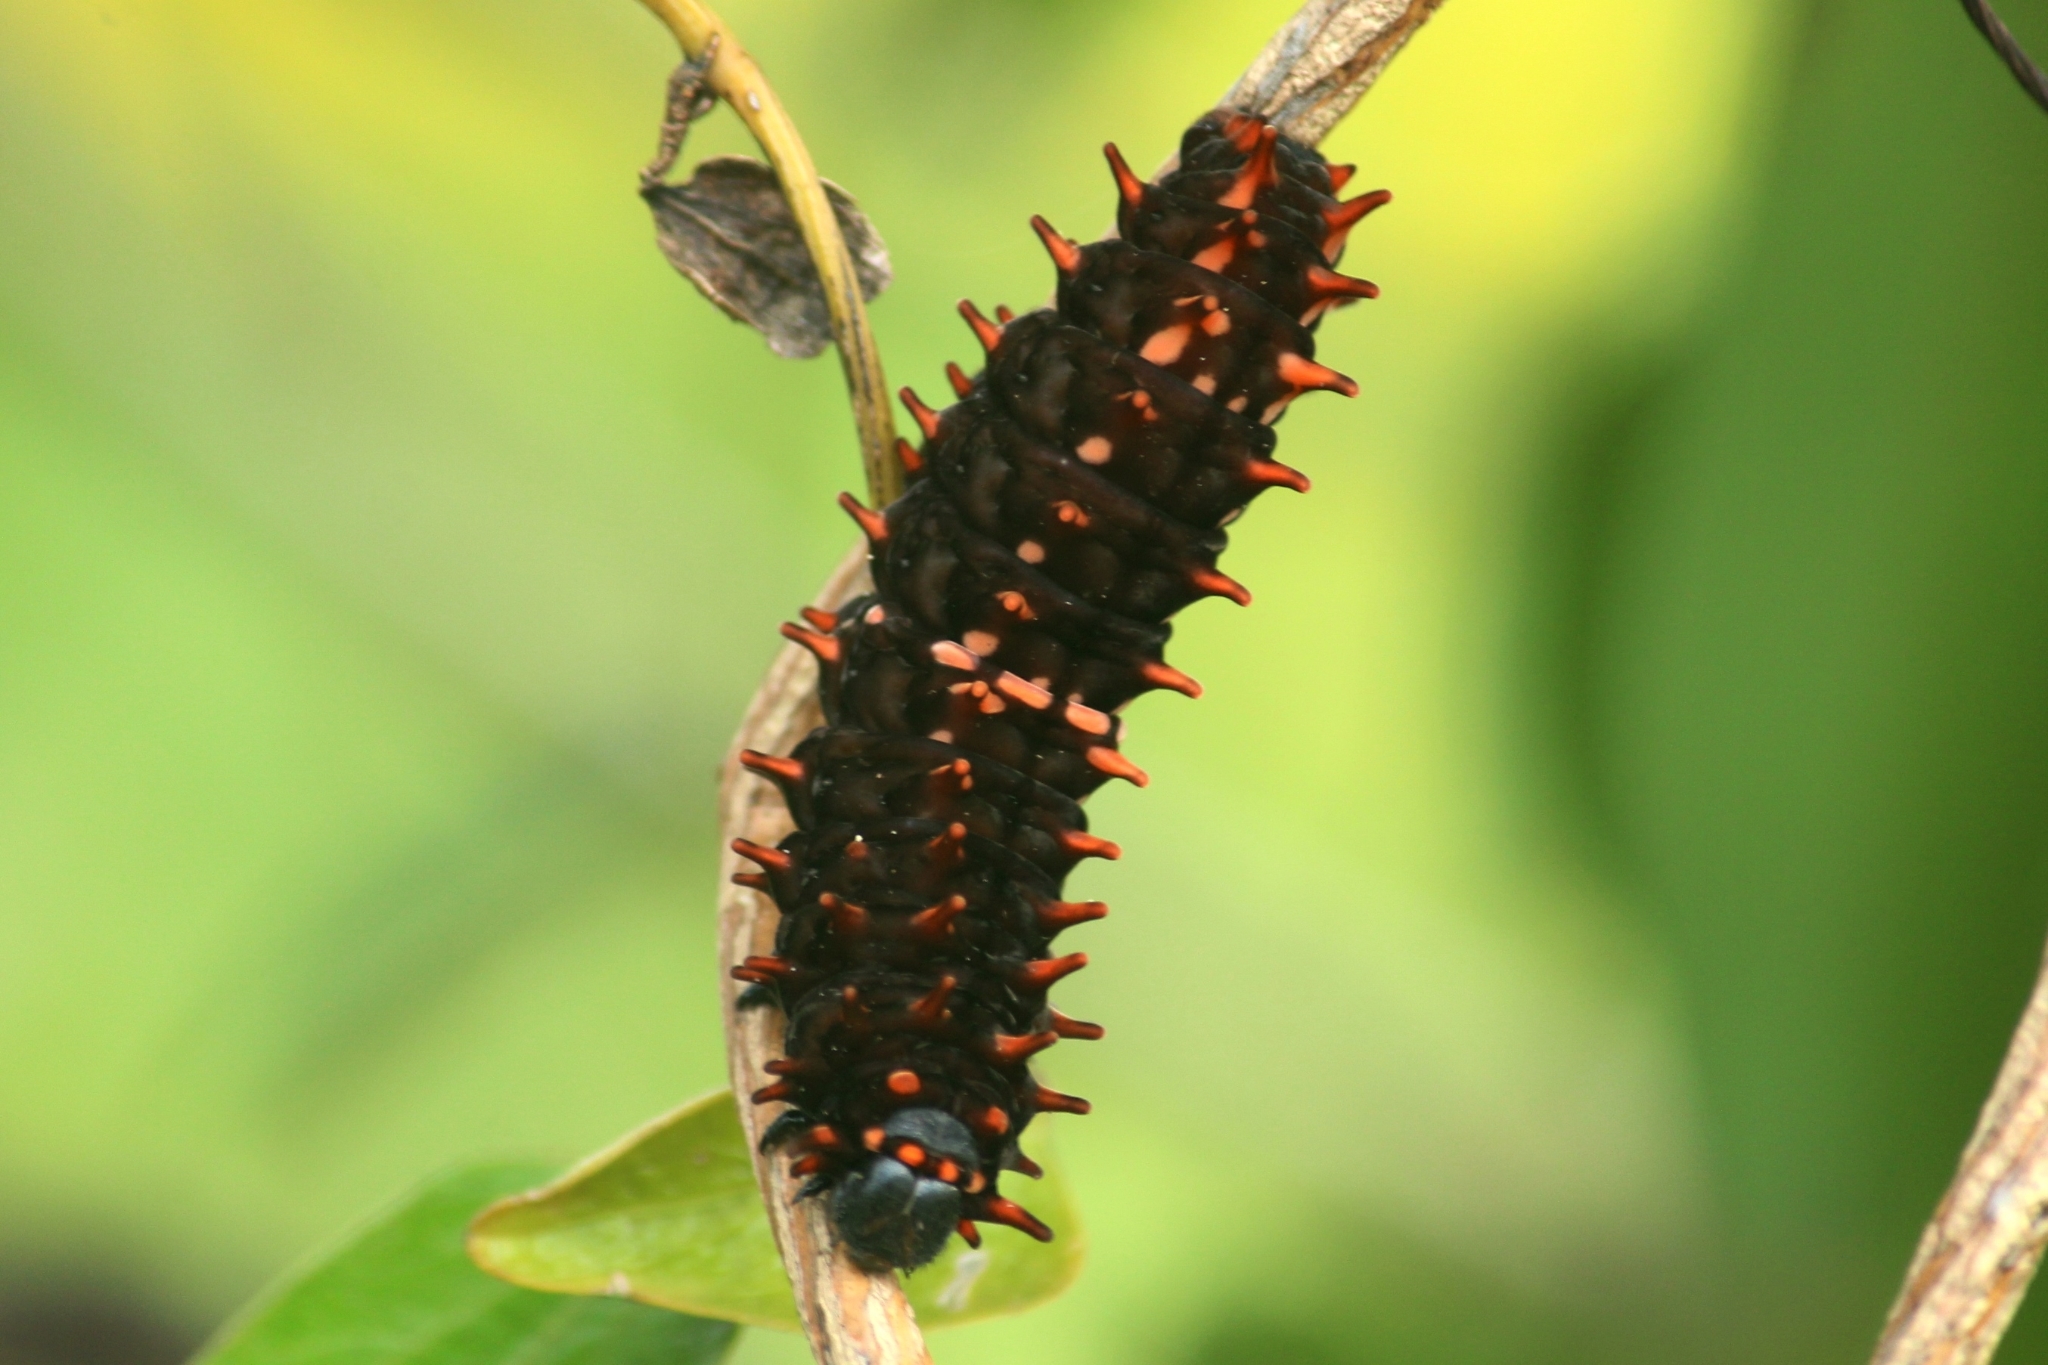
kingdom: Animalia
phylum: Arthropoda
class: Insecta
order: Lepidoptera
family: Papilionidae
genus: Pachliopta
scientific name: Pachliopta hector
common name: Crimson rose
